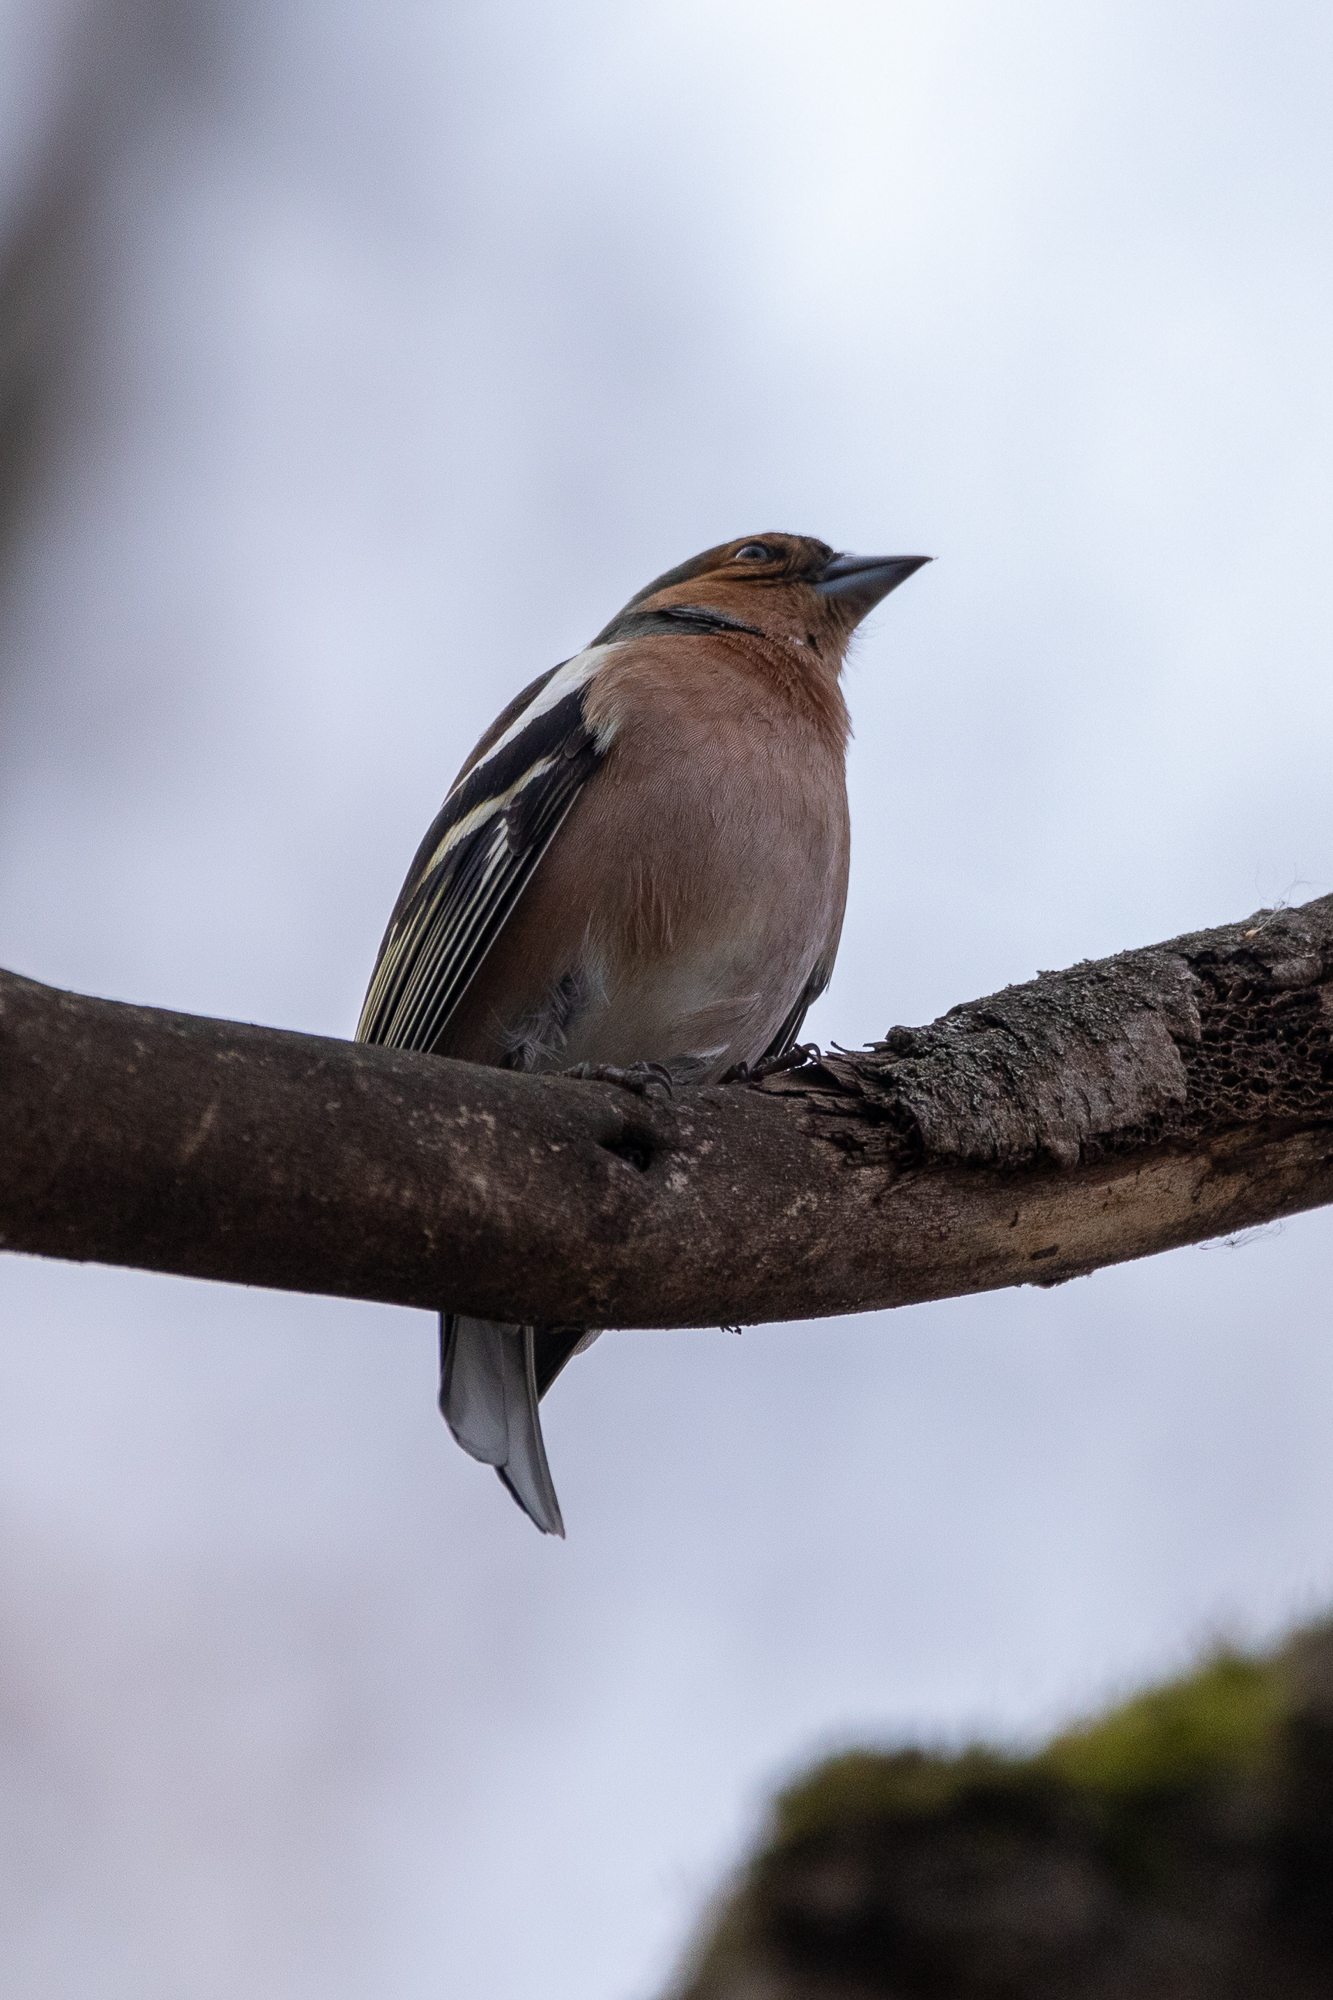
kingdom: Animalia
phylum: Chordata
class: Aves
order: Passeriformes
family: Fringillidae
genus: Fringilla
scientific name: Fringilla coelebs
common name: Common chaffinch
